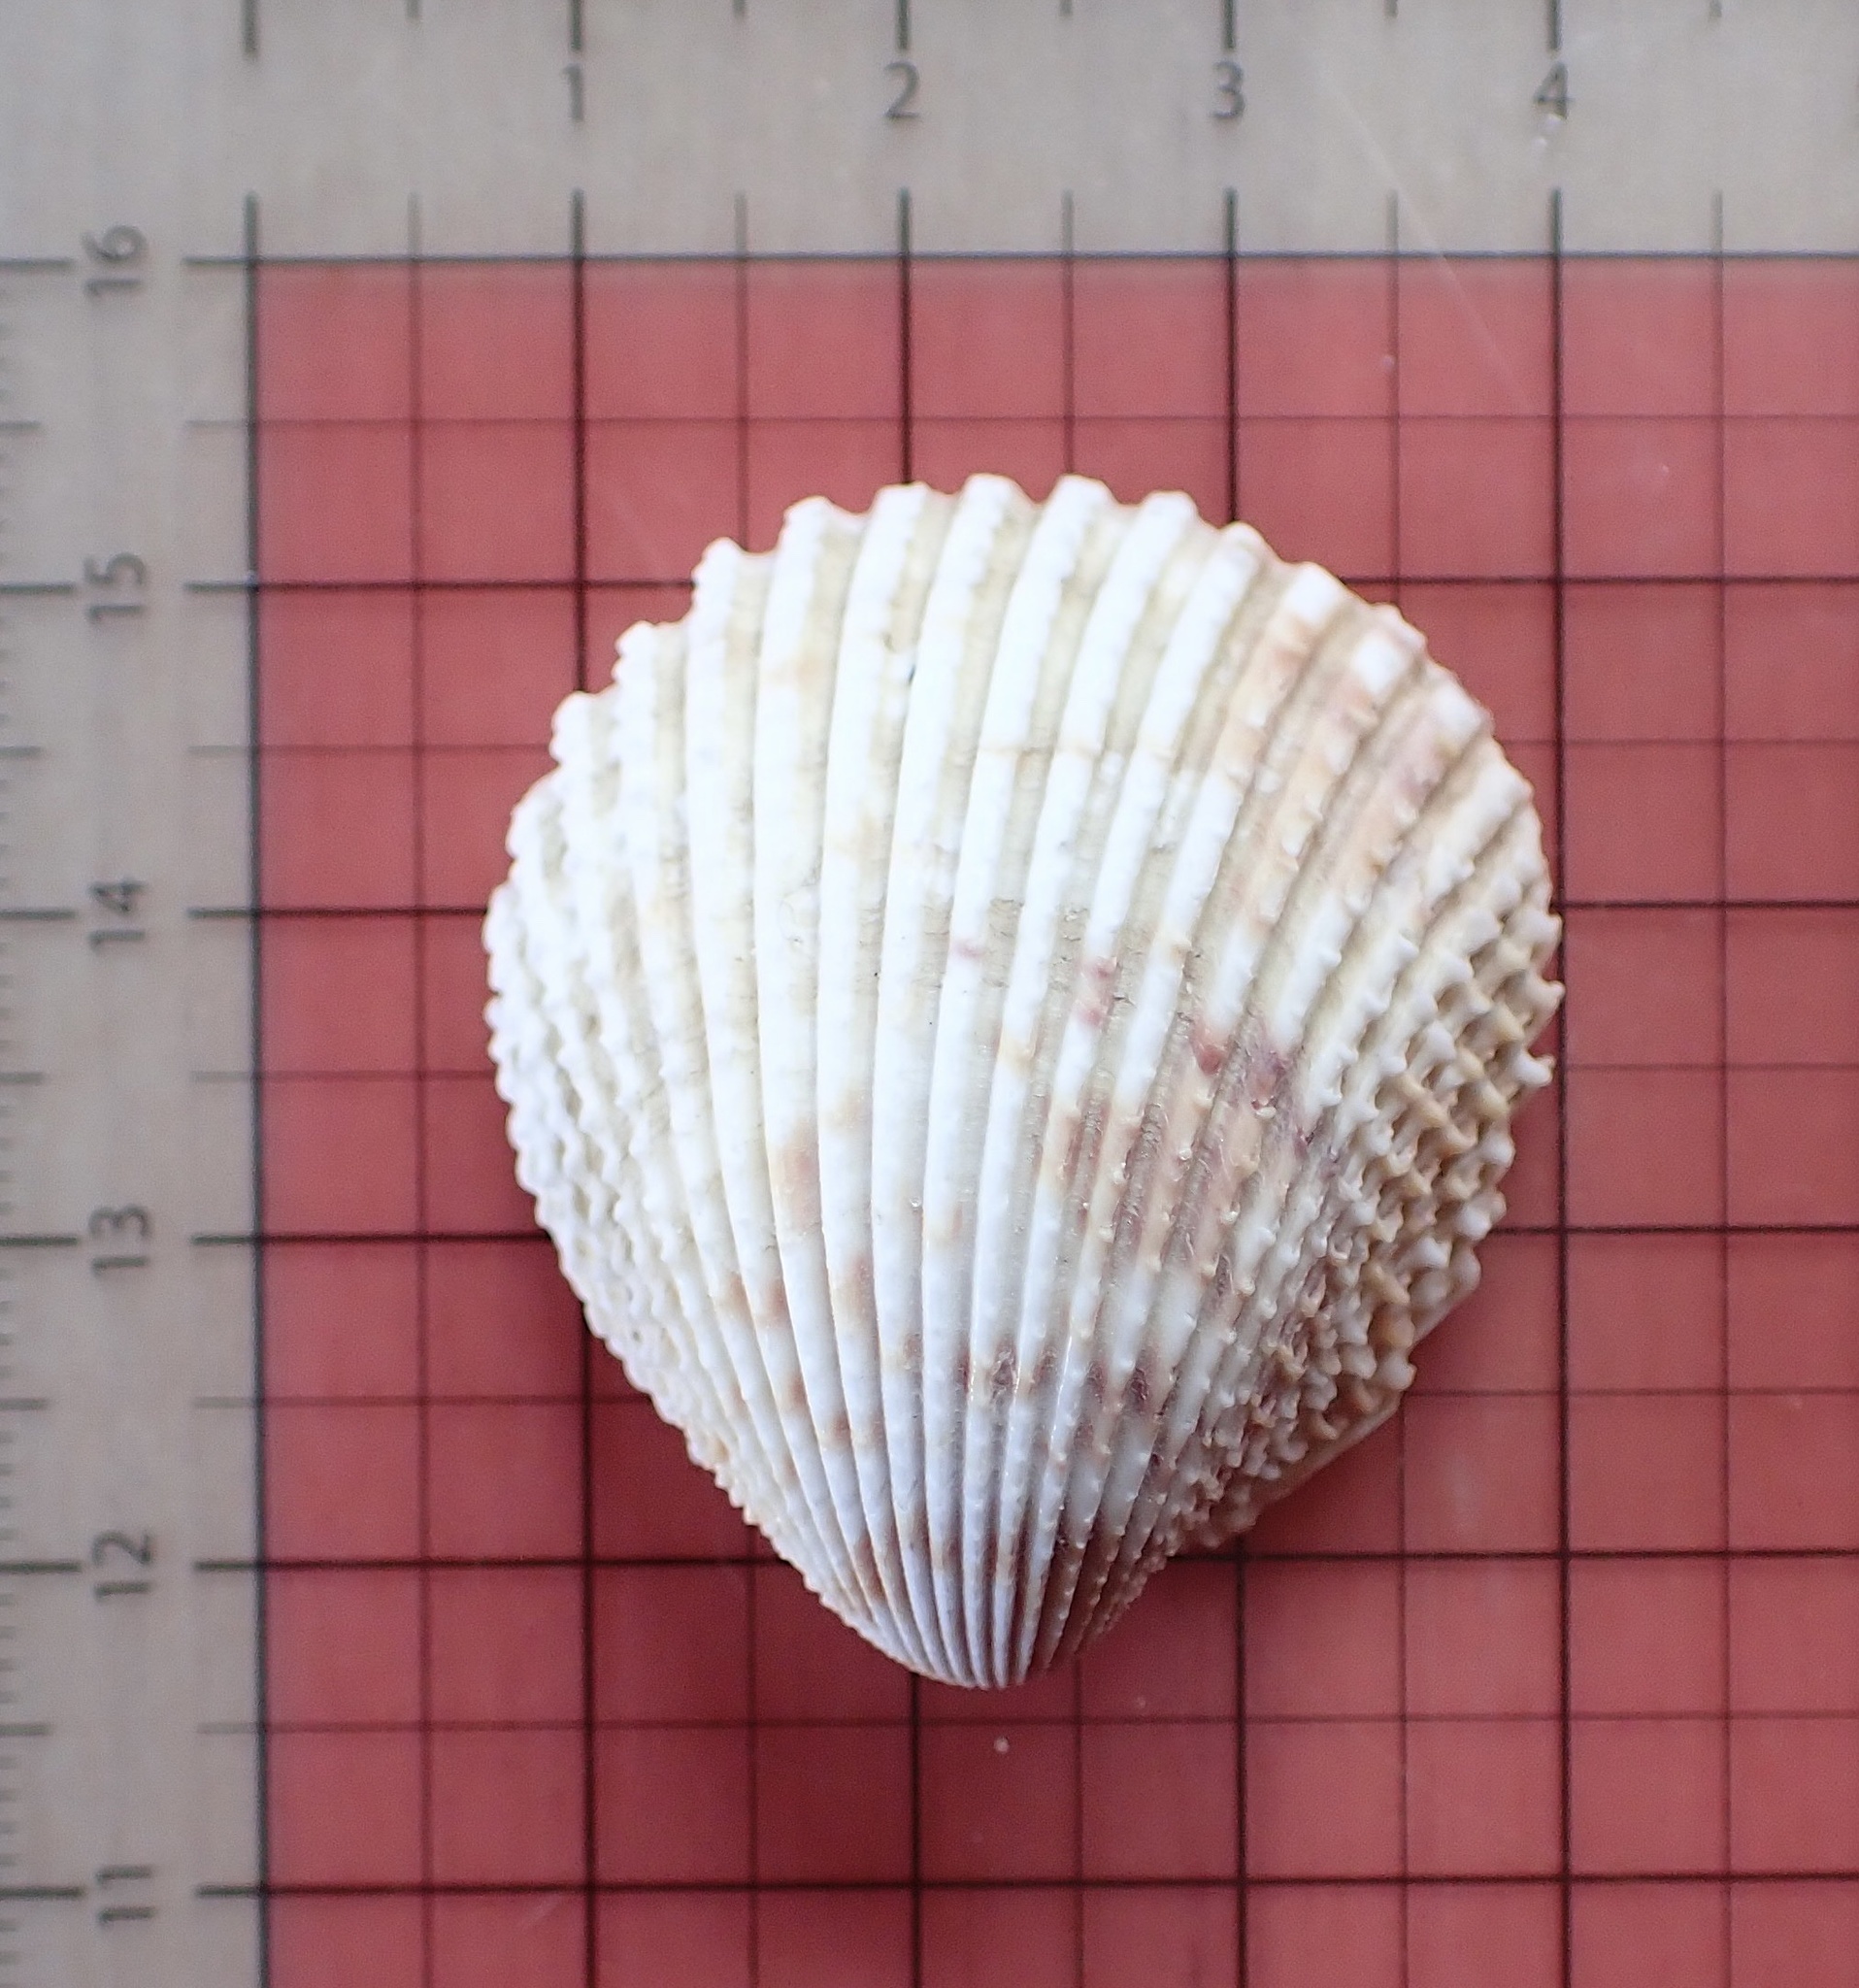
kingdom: Animalia
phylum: Mollusca
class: Bivalvia
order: Cardiida
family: Cardiidae
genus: Trachycardium
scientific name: Trachycardium egmontianum
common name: Florida pricklycockle
